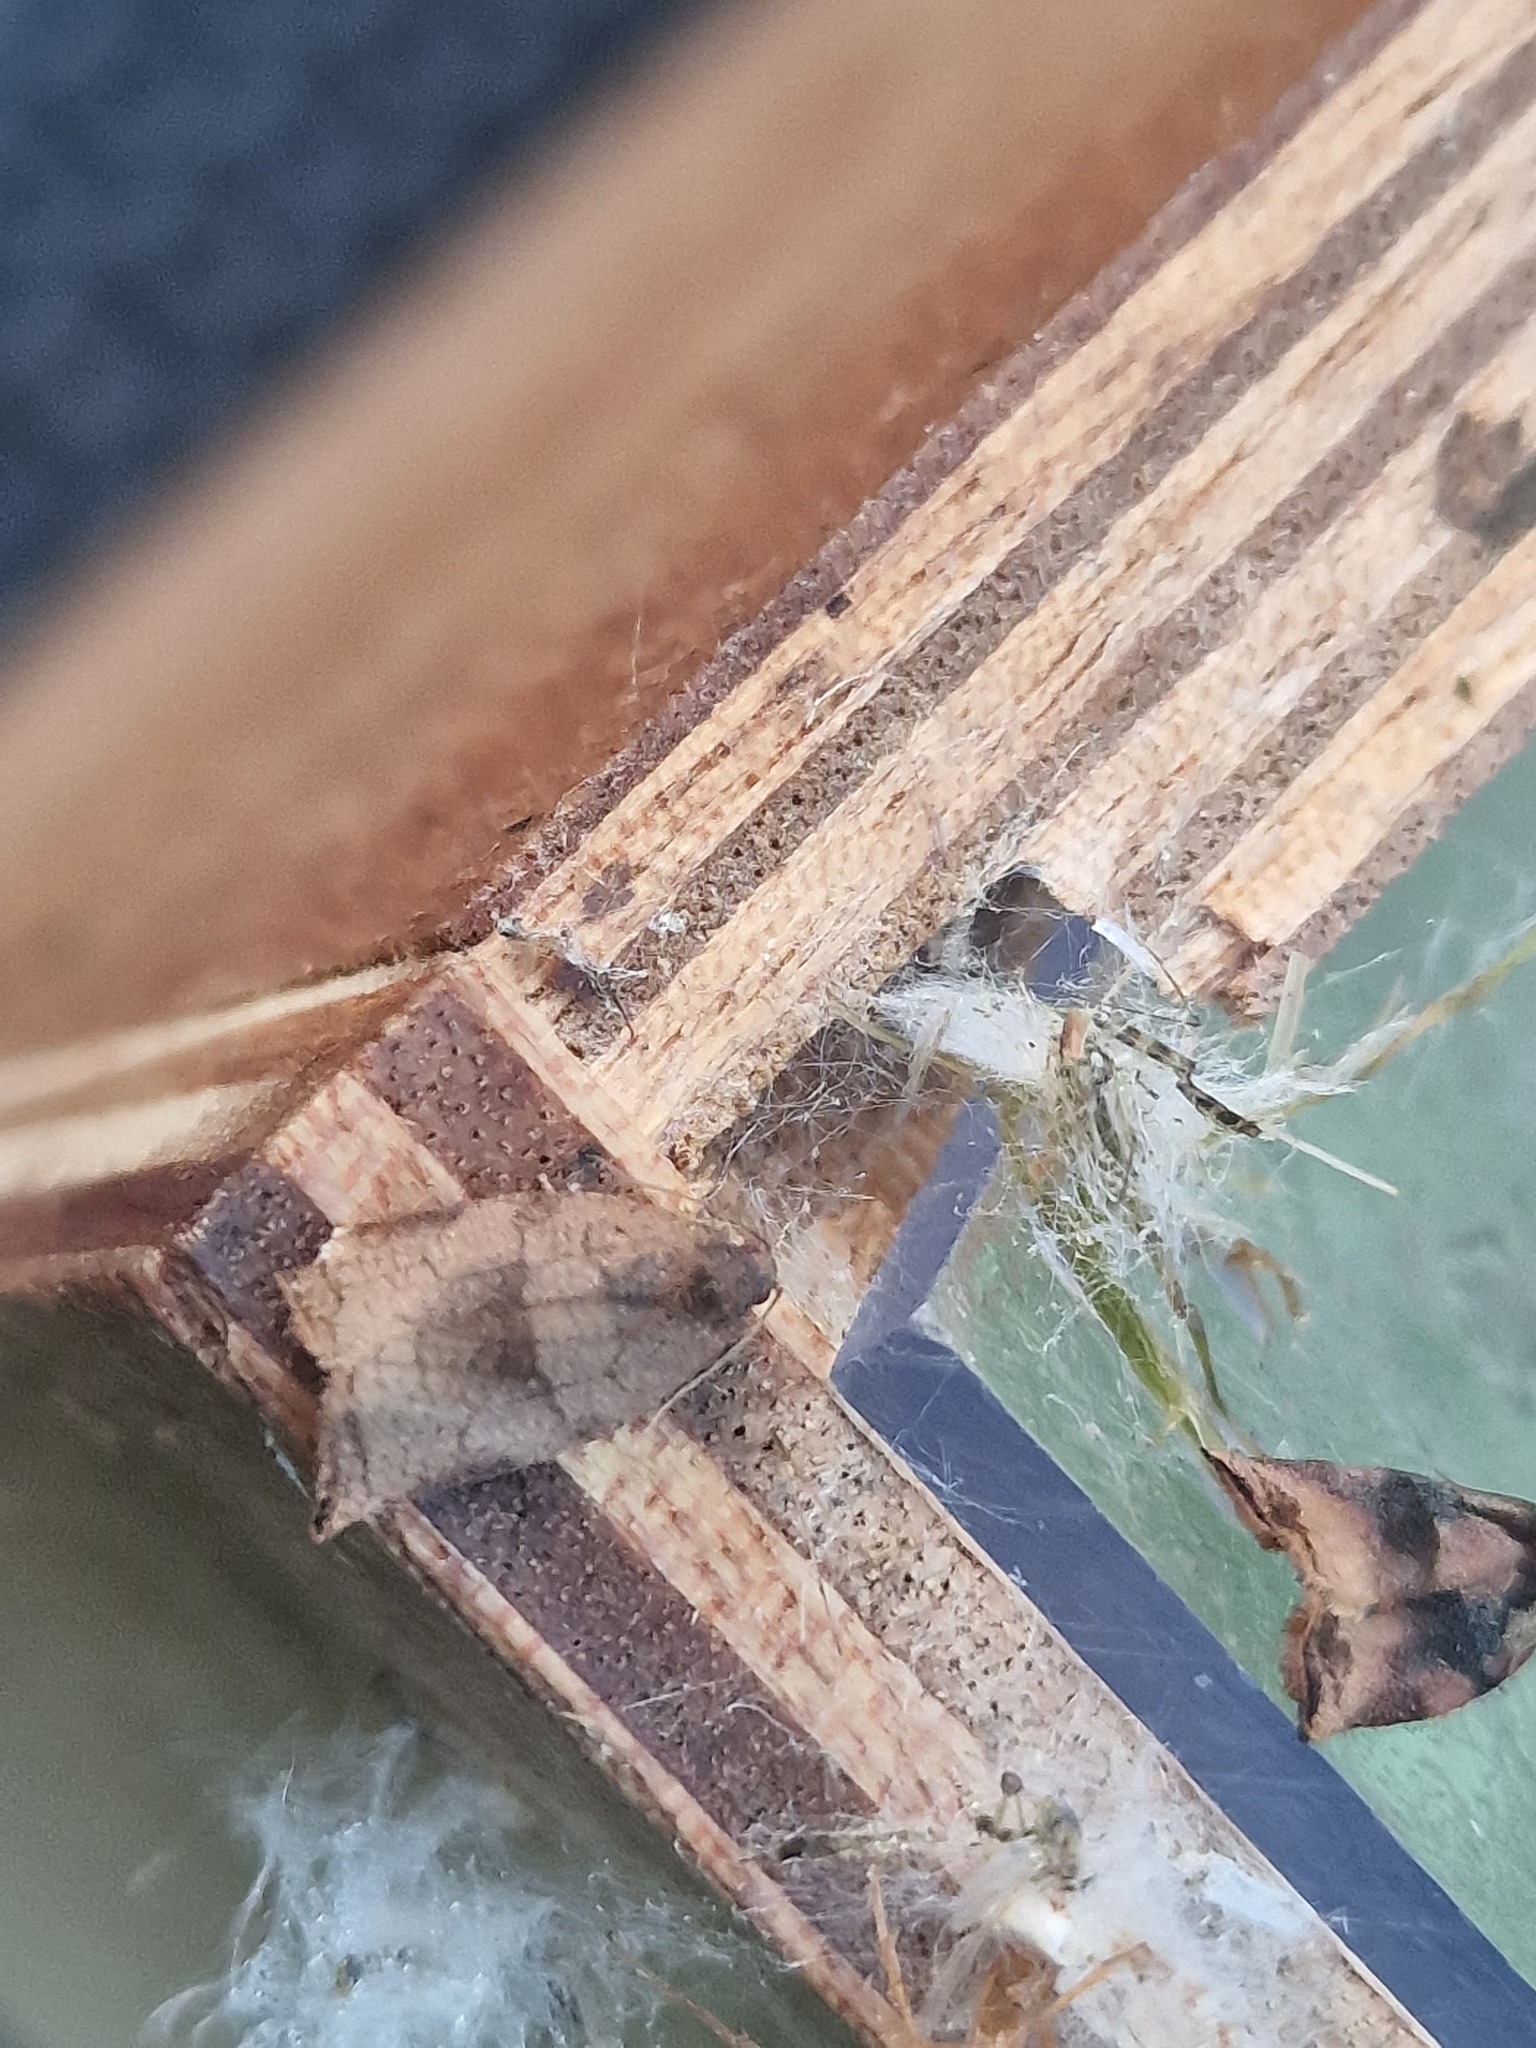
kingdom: Animalia
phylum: Arthropoda
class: Insecta
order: Lepidoptera
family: Tortricidae
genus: Archips
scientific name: Archips podana
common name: Large fruit-tree tortrix
